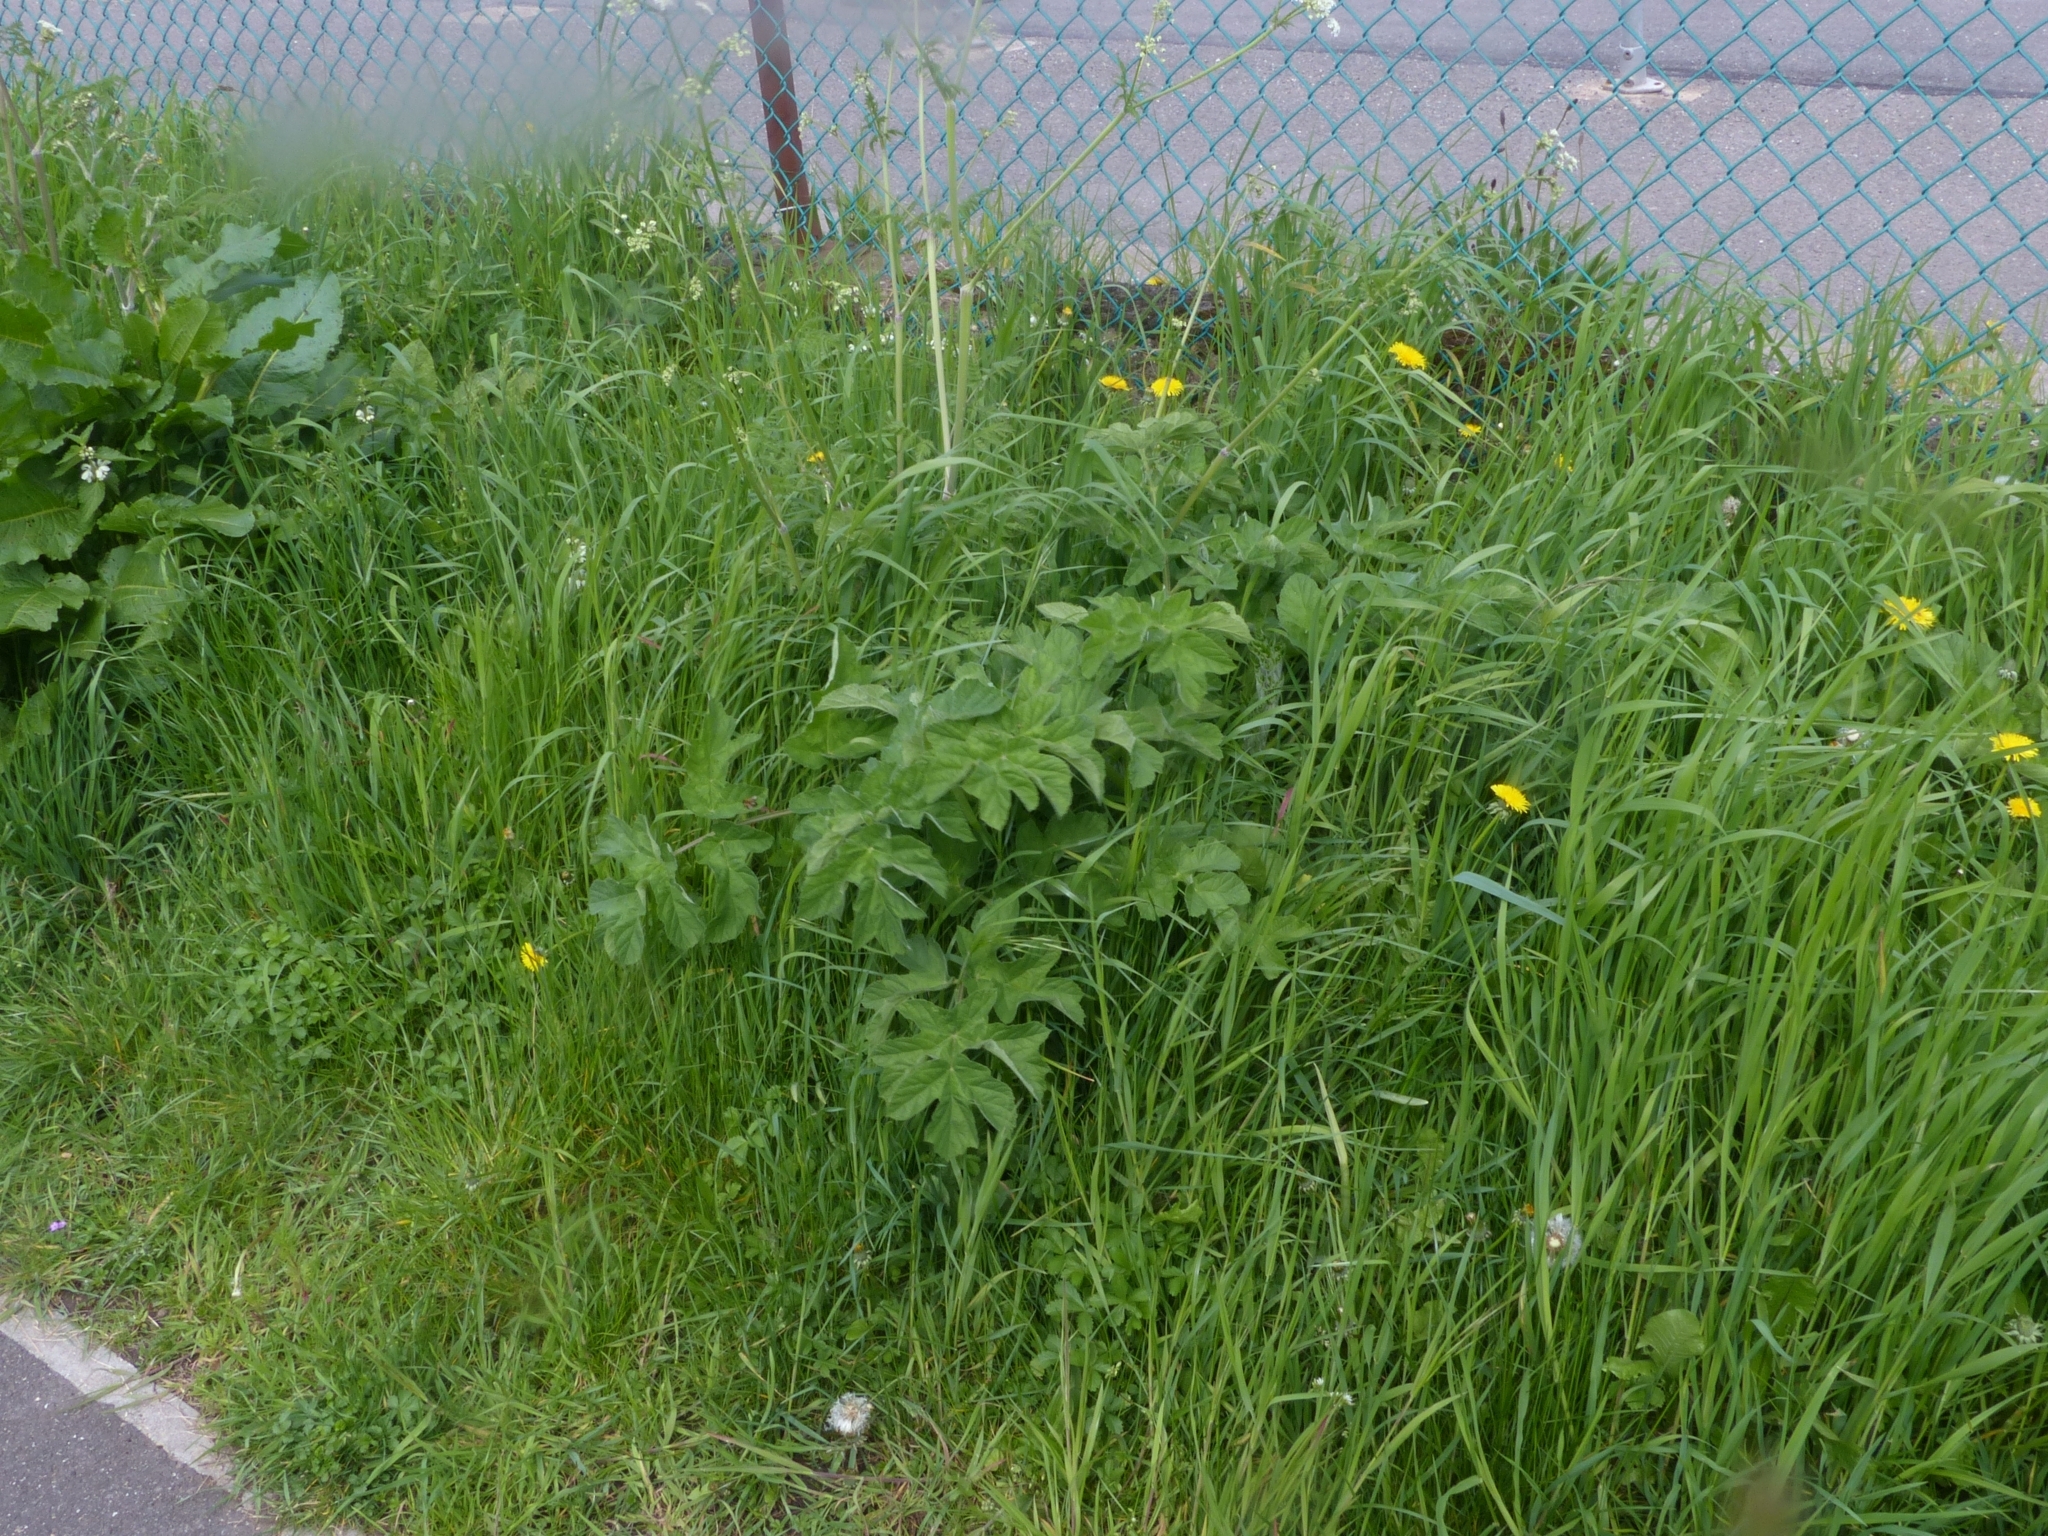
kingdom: Plantae
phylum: Tracheophyta
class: Magnoliopsida
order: Apiales
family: Apiaceae
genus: Heracleum
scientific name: Heracleum sphondylium
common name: Hogweed
